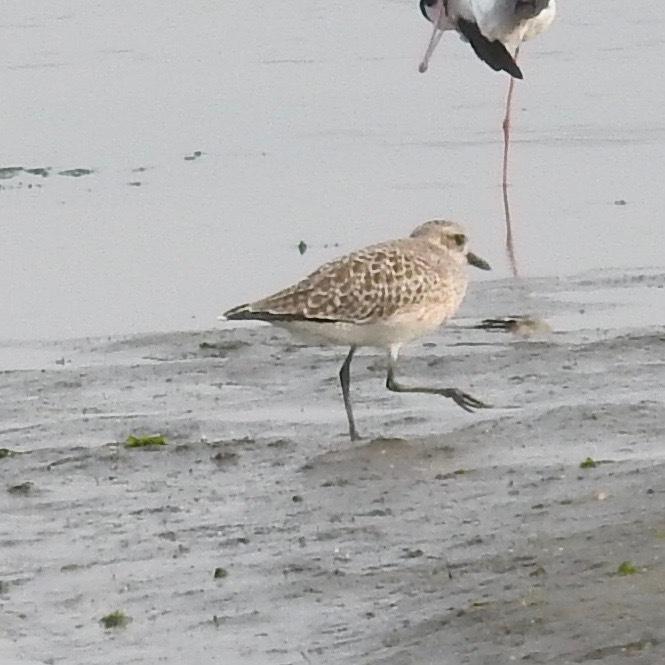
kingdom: Animalia
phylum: Chordata
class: Aves
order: Charadriiformes
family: Charadriidae
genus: Pluvialis
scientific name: Pluvialis squatarola
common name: Grey plover
